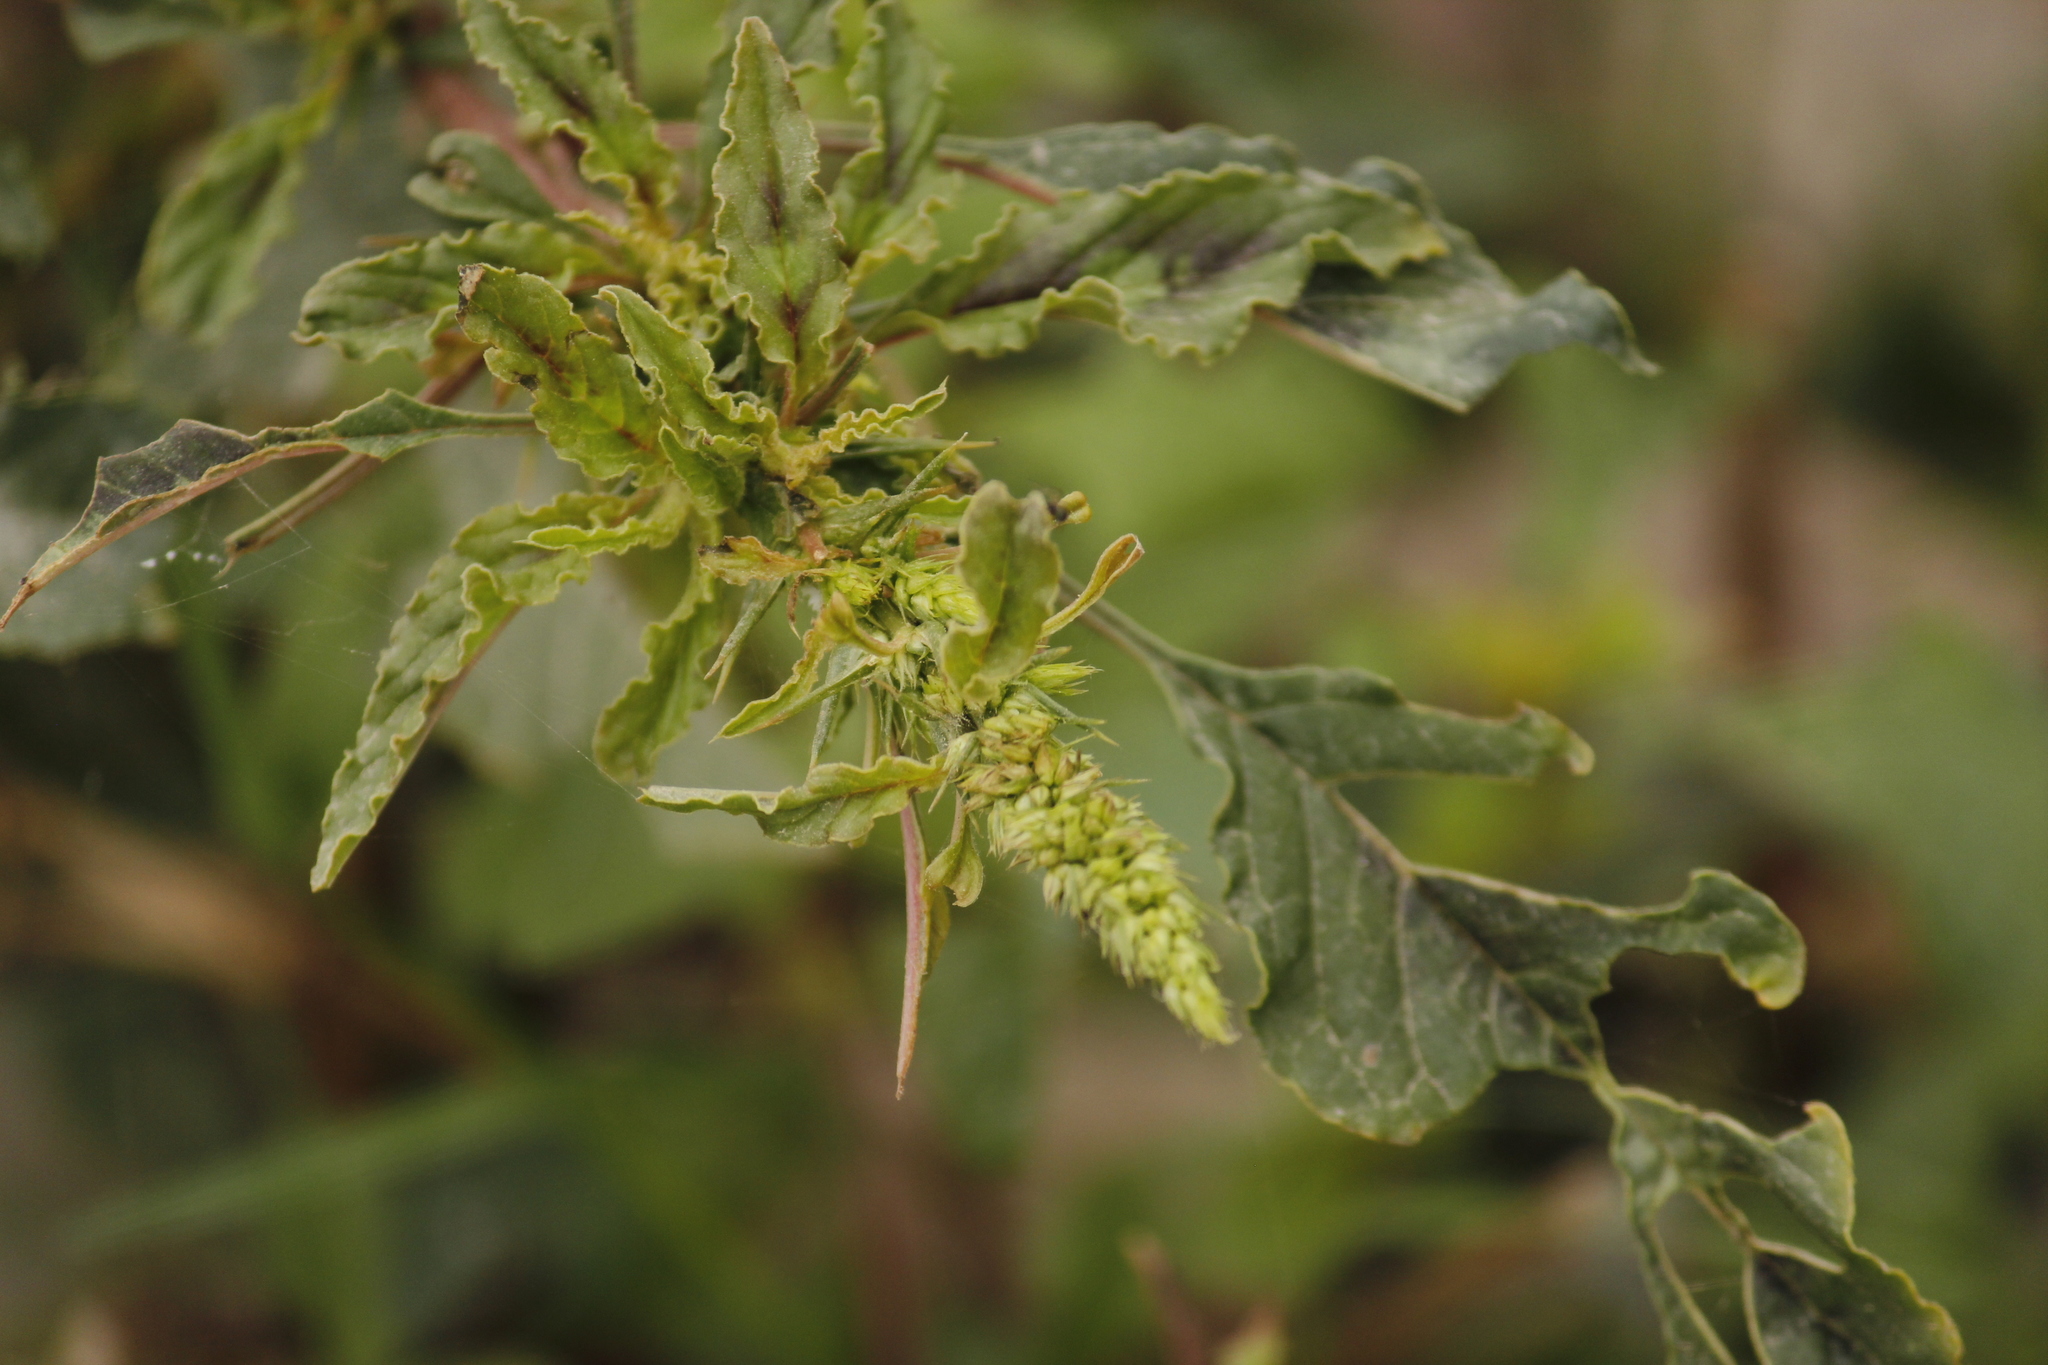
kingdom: Plantae
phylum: Tracheophyta
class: Magnoliopsida
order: Caryophyllales
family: Amaranthaceae
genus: Amaranthus
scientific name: Amaranthus hybridus
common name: Green amaranth
